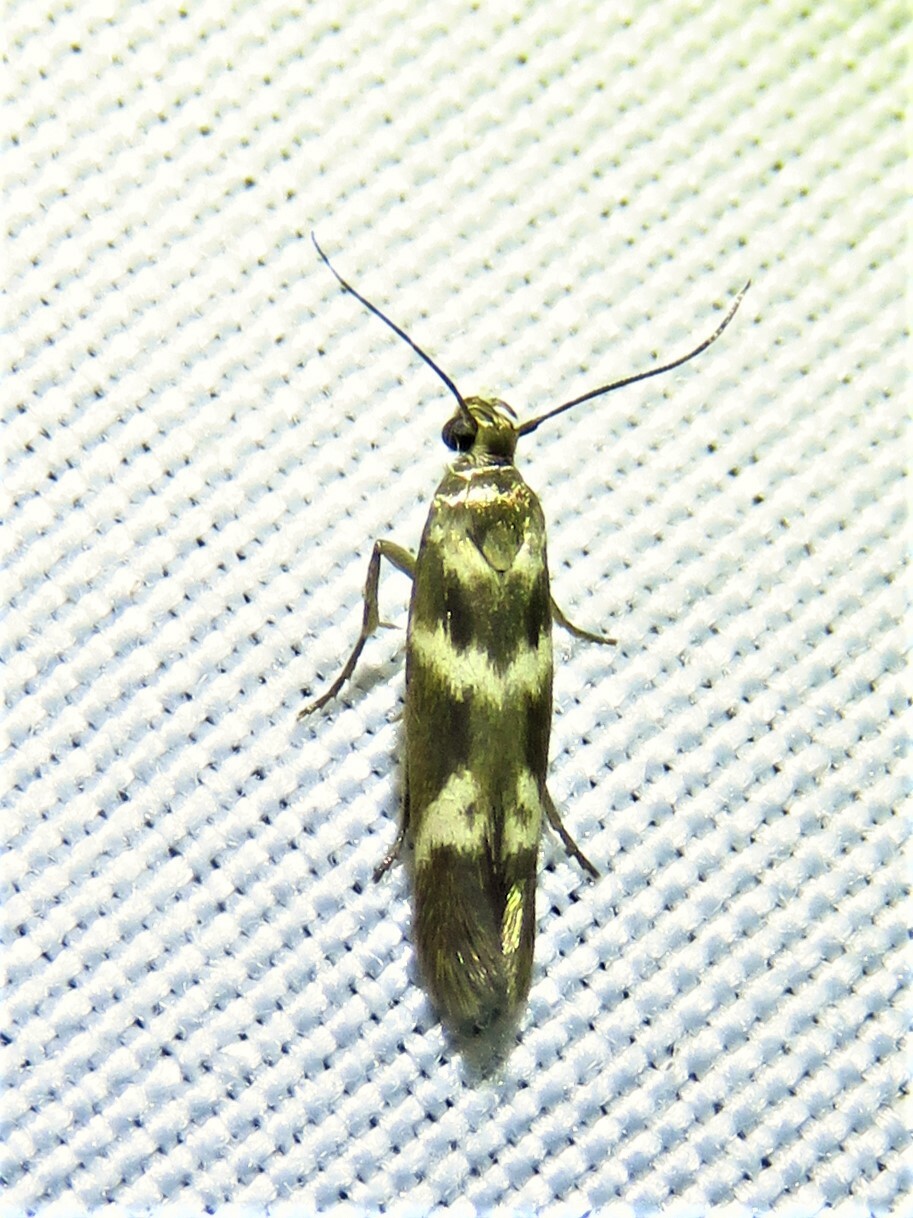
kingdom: Animalia
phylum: Arthropoda
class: Insecta
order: Lepidoptera
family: Scythrididae
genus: Scythris
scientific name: Scythris trivinctella
